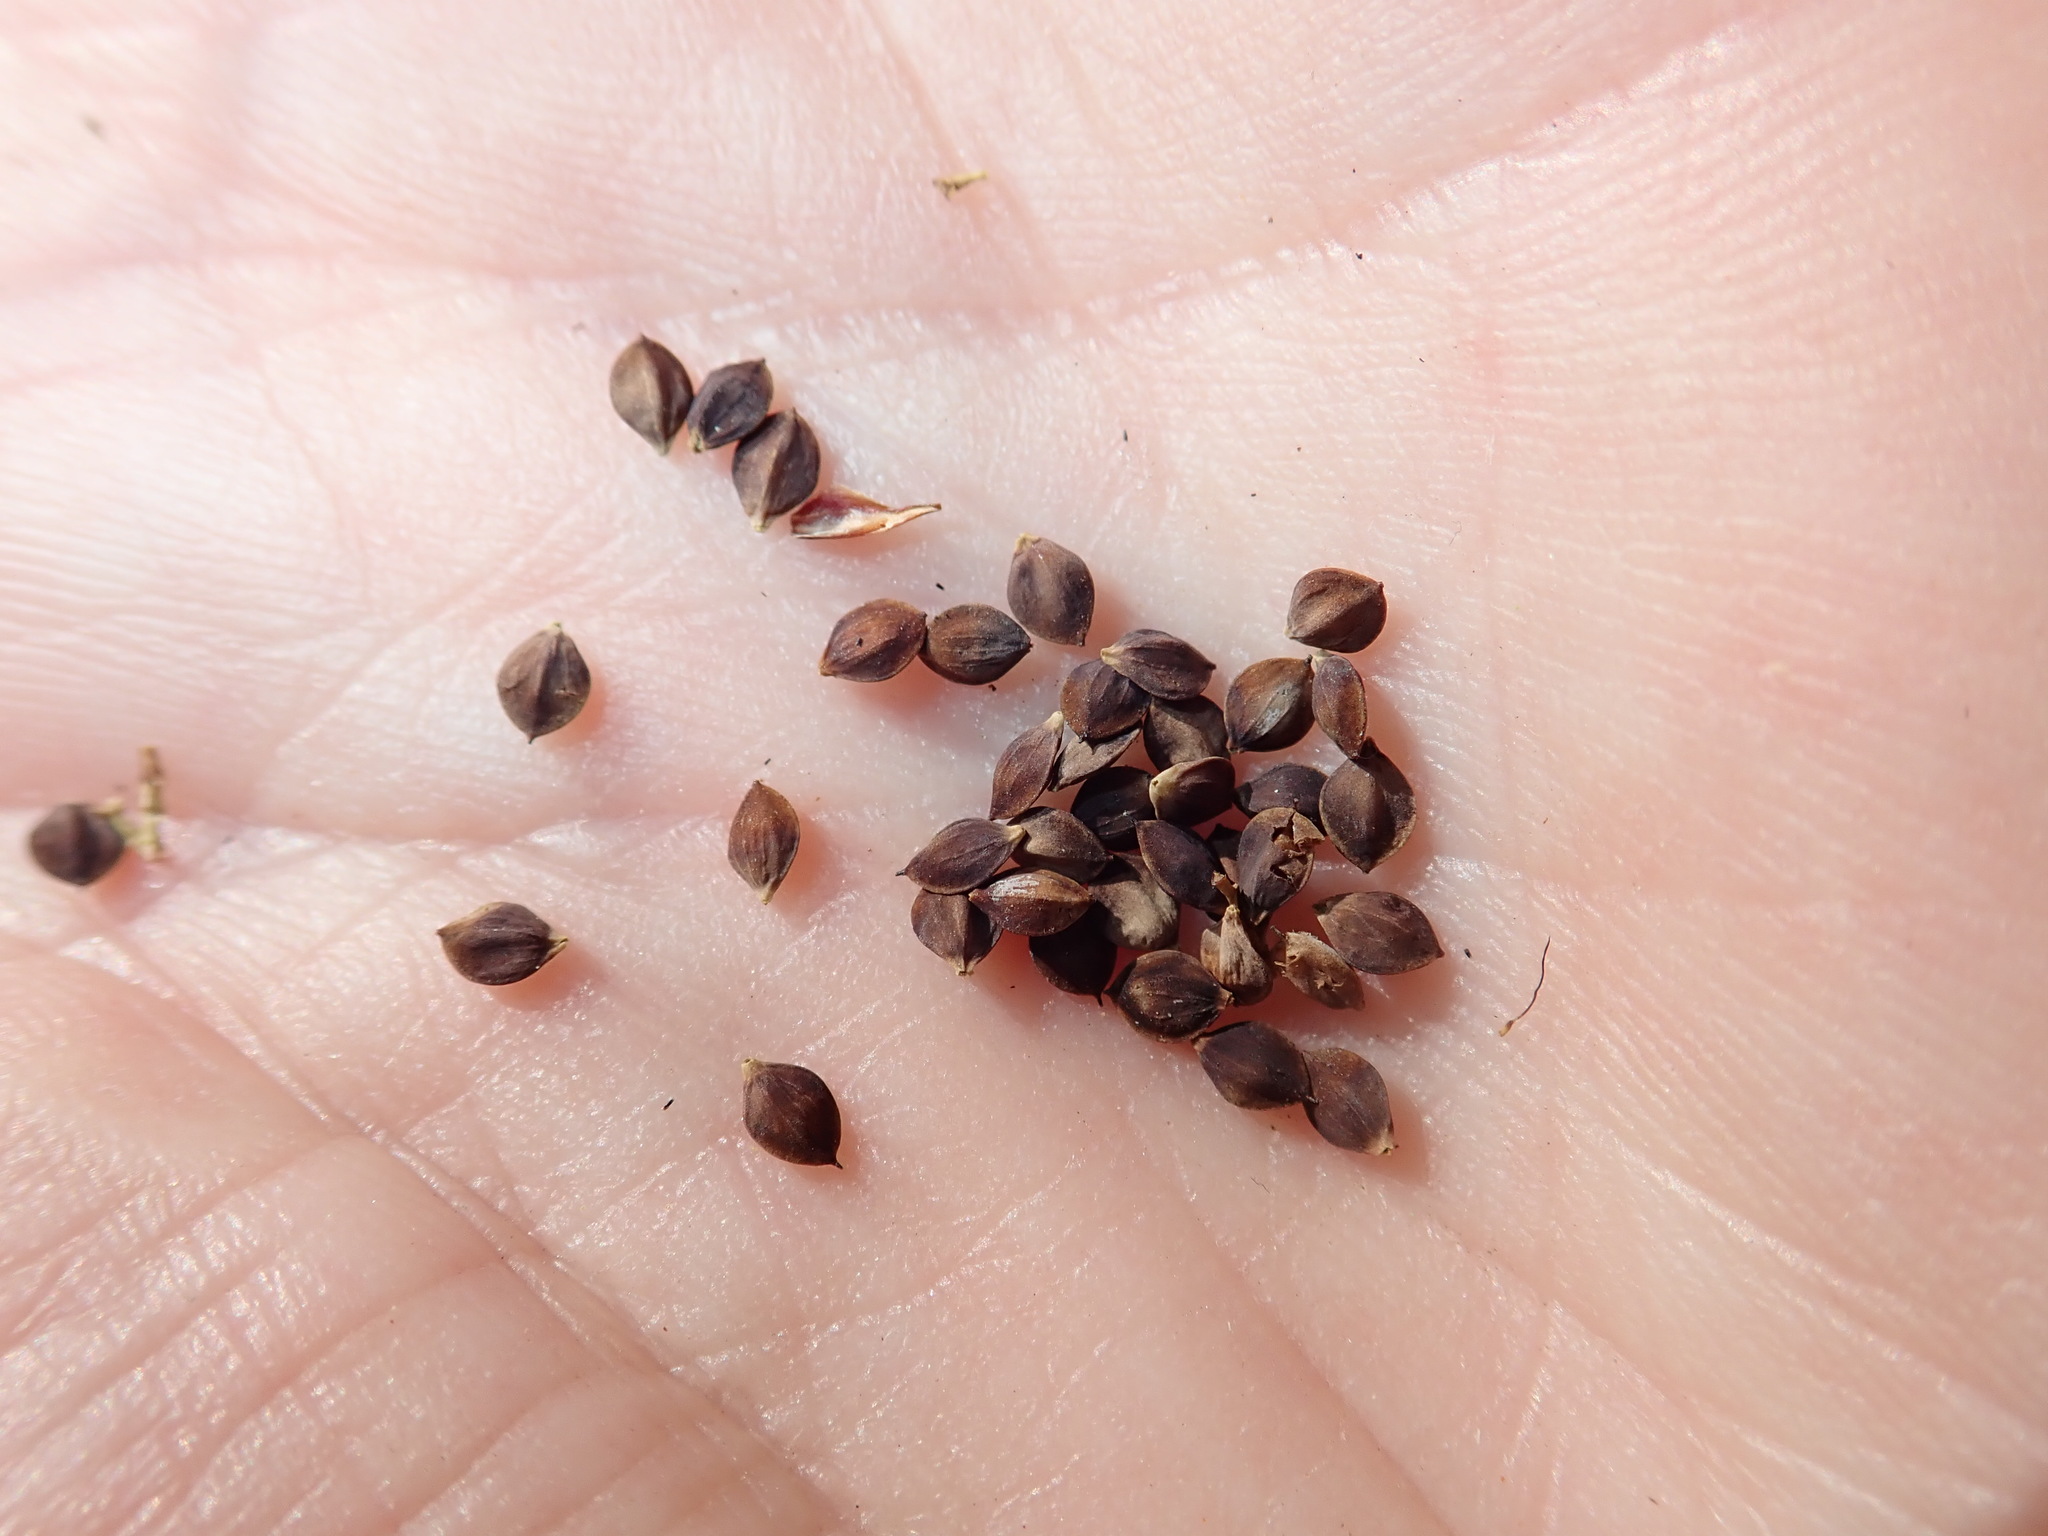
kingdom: Plantae
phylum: Tracheophyta
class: Liliopsida
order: Poales
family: Cyperaceae
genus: Carex
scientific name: Carex limosa
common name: Bog sedge
